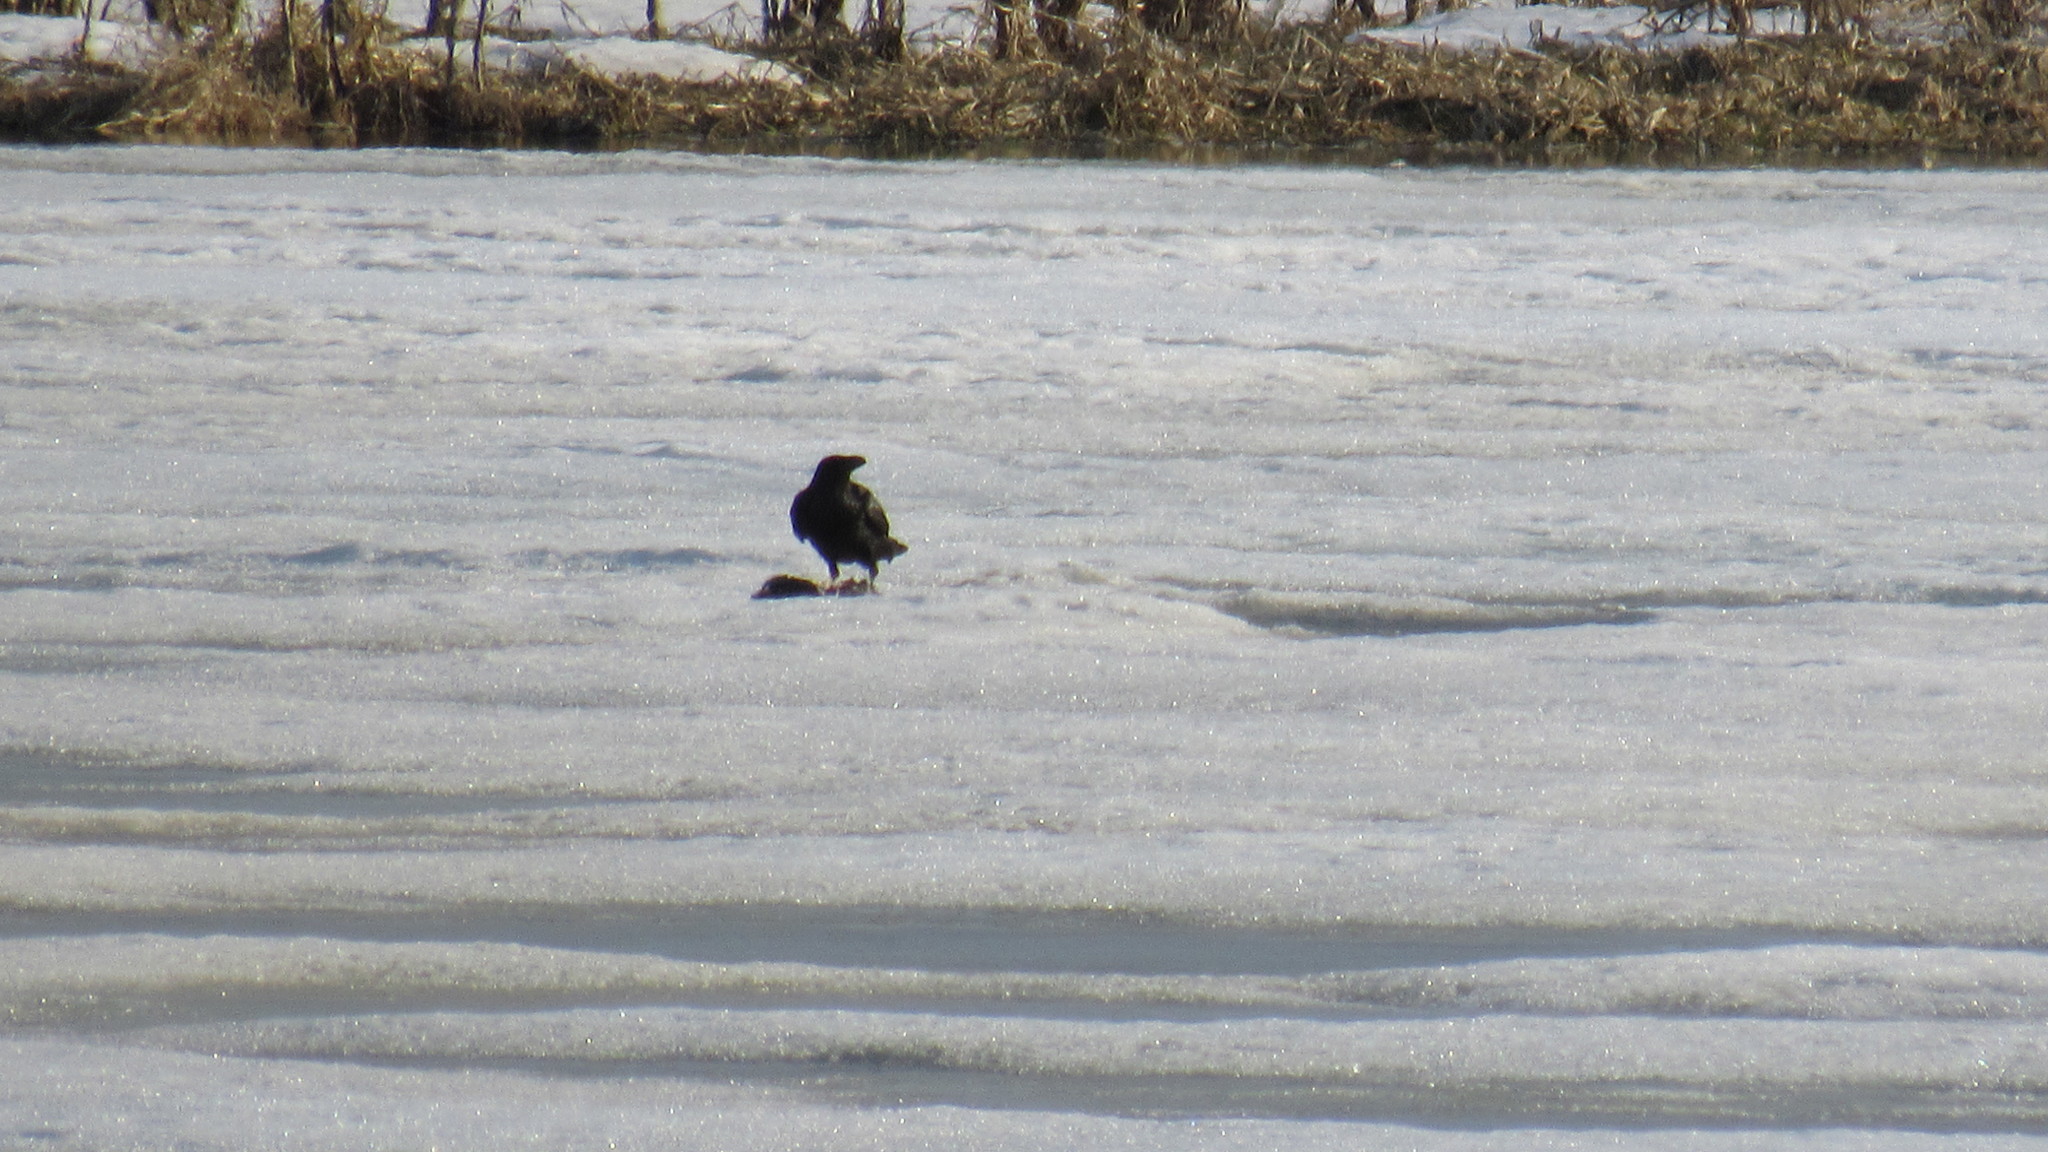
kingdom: Animalia
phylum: Chordata
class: Aves
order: Passeriformes
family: Corvidae
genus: Corvus
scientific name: Corvus corax
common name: Common raven
